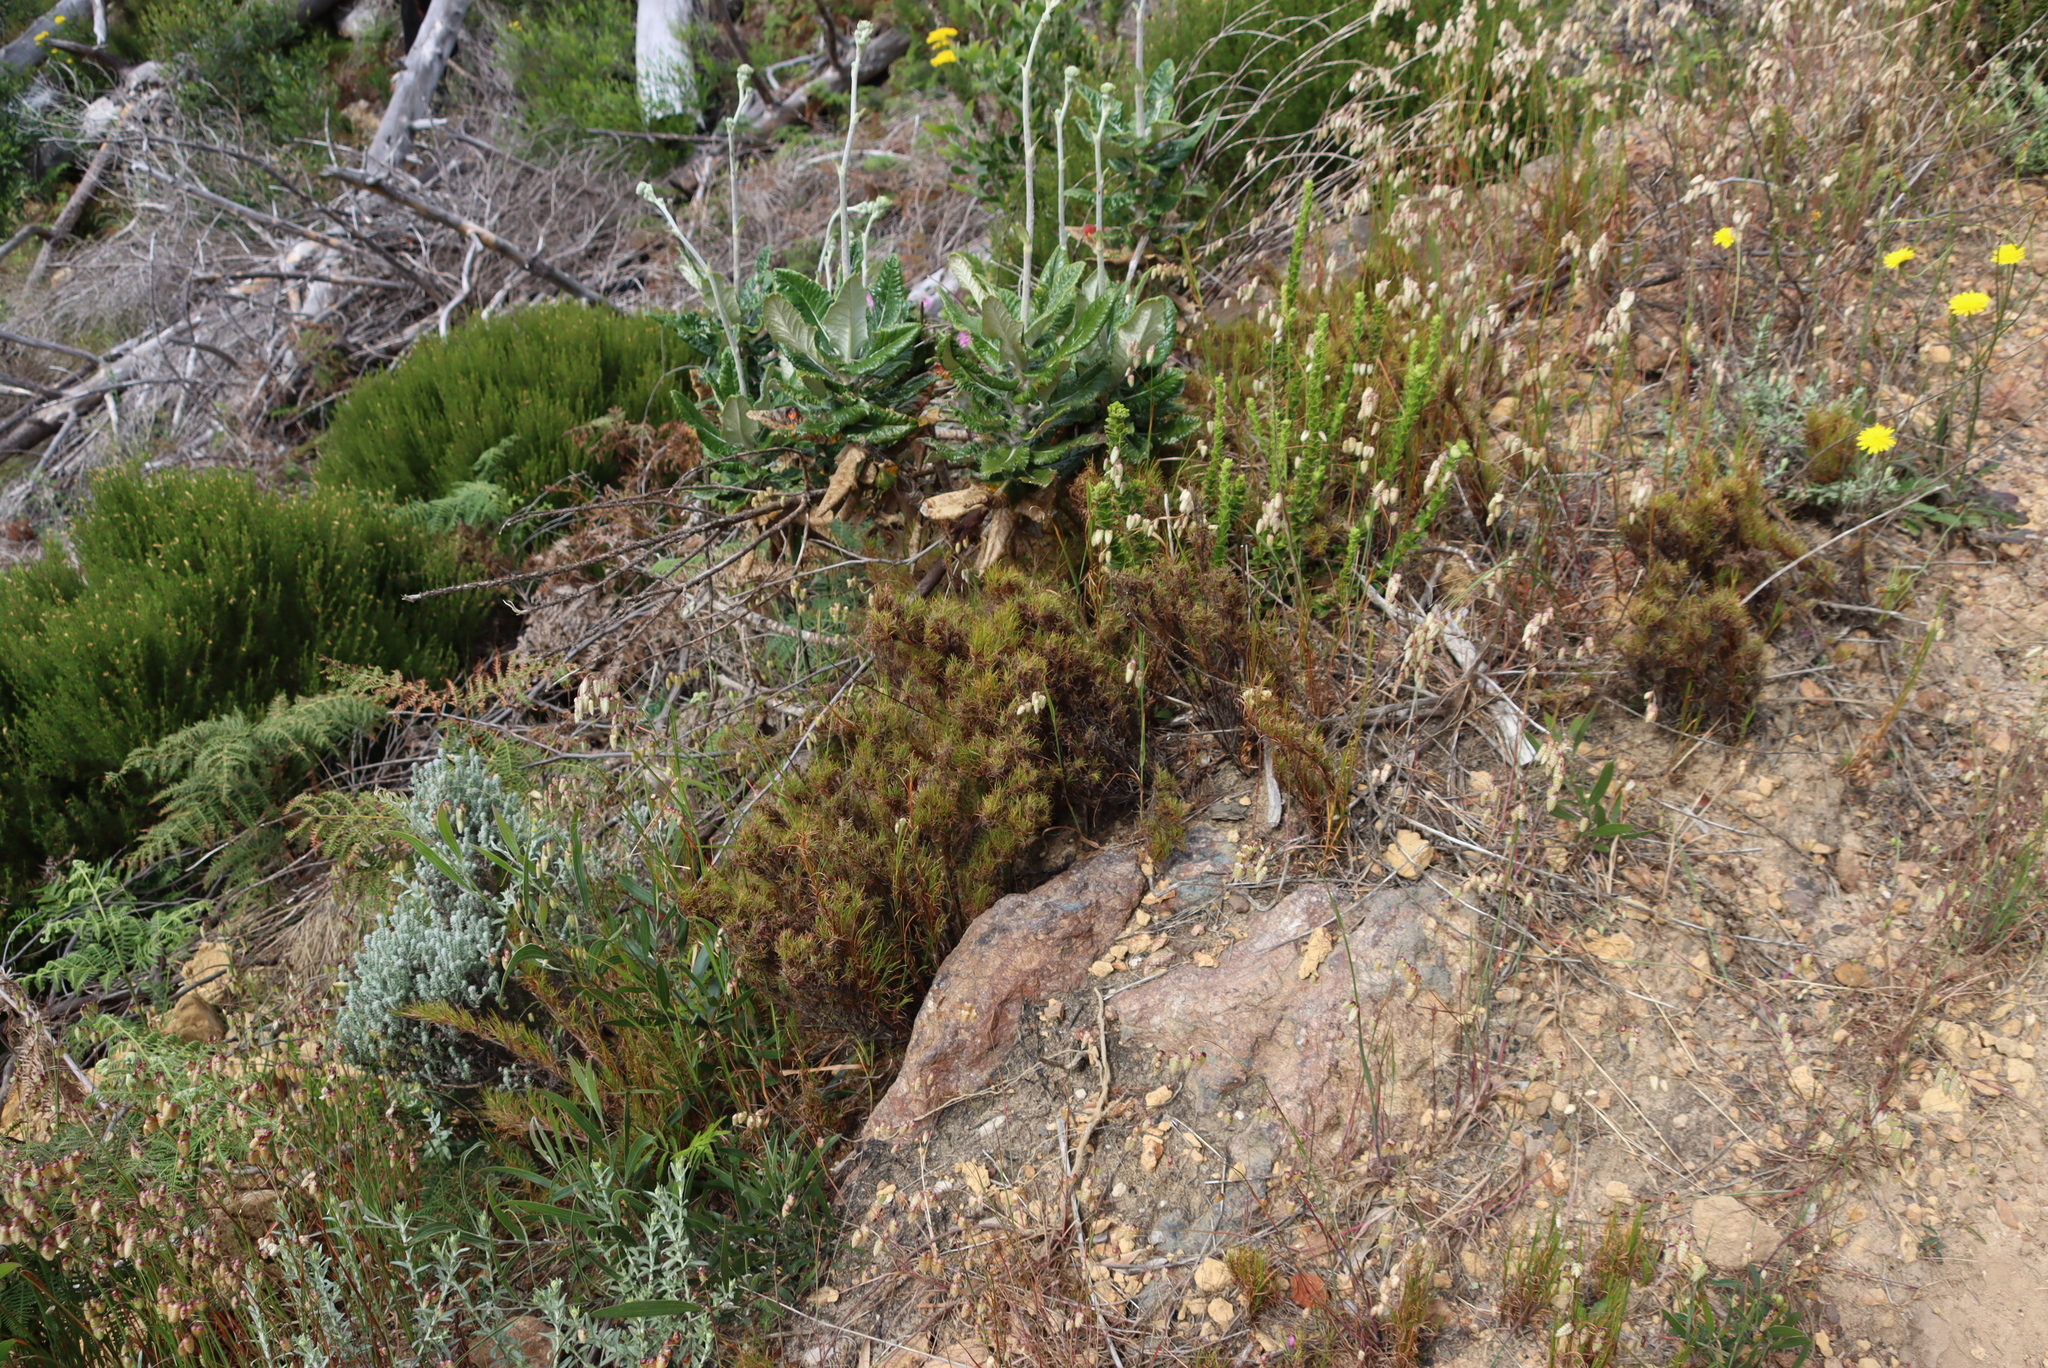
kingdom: Plantae
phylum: Tracheophyta
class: Liliopsida
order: Poales
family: Poaceae
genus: Briza
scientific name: Briza maxima
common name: Big quakinggrass
